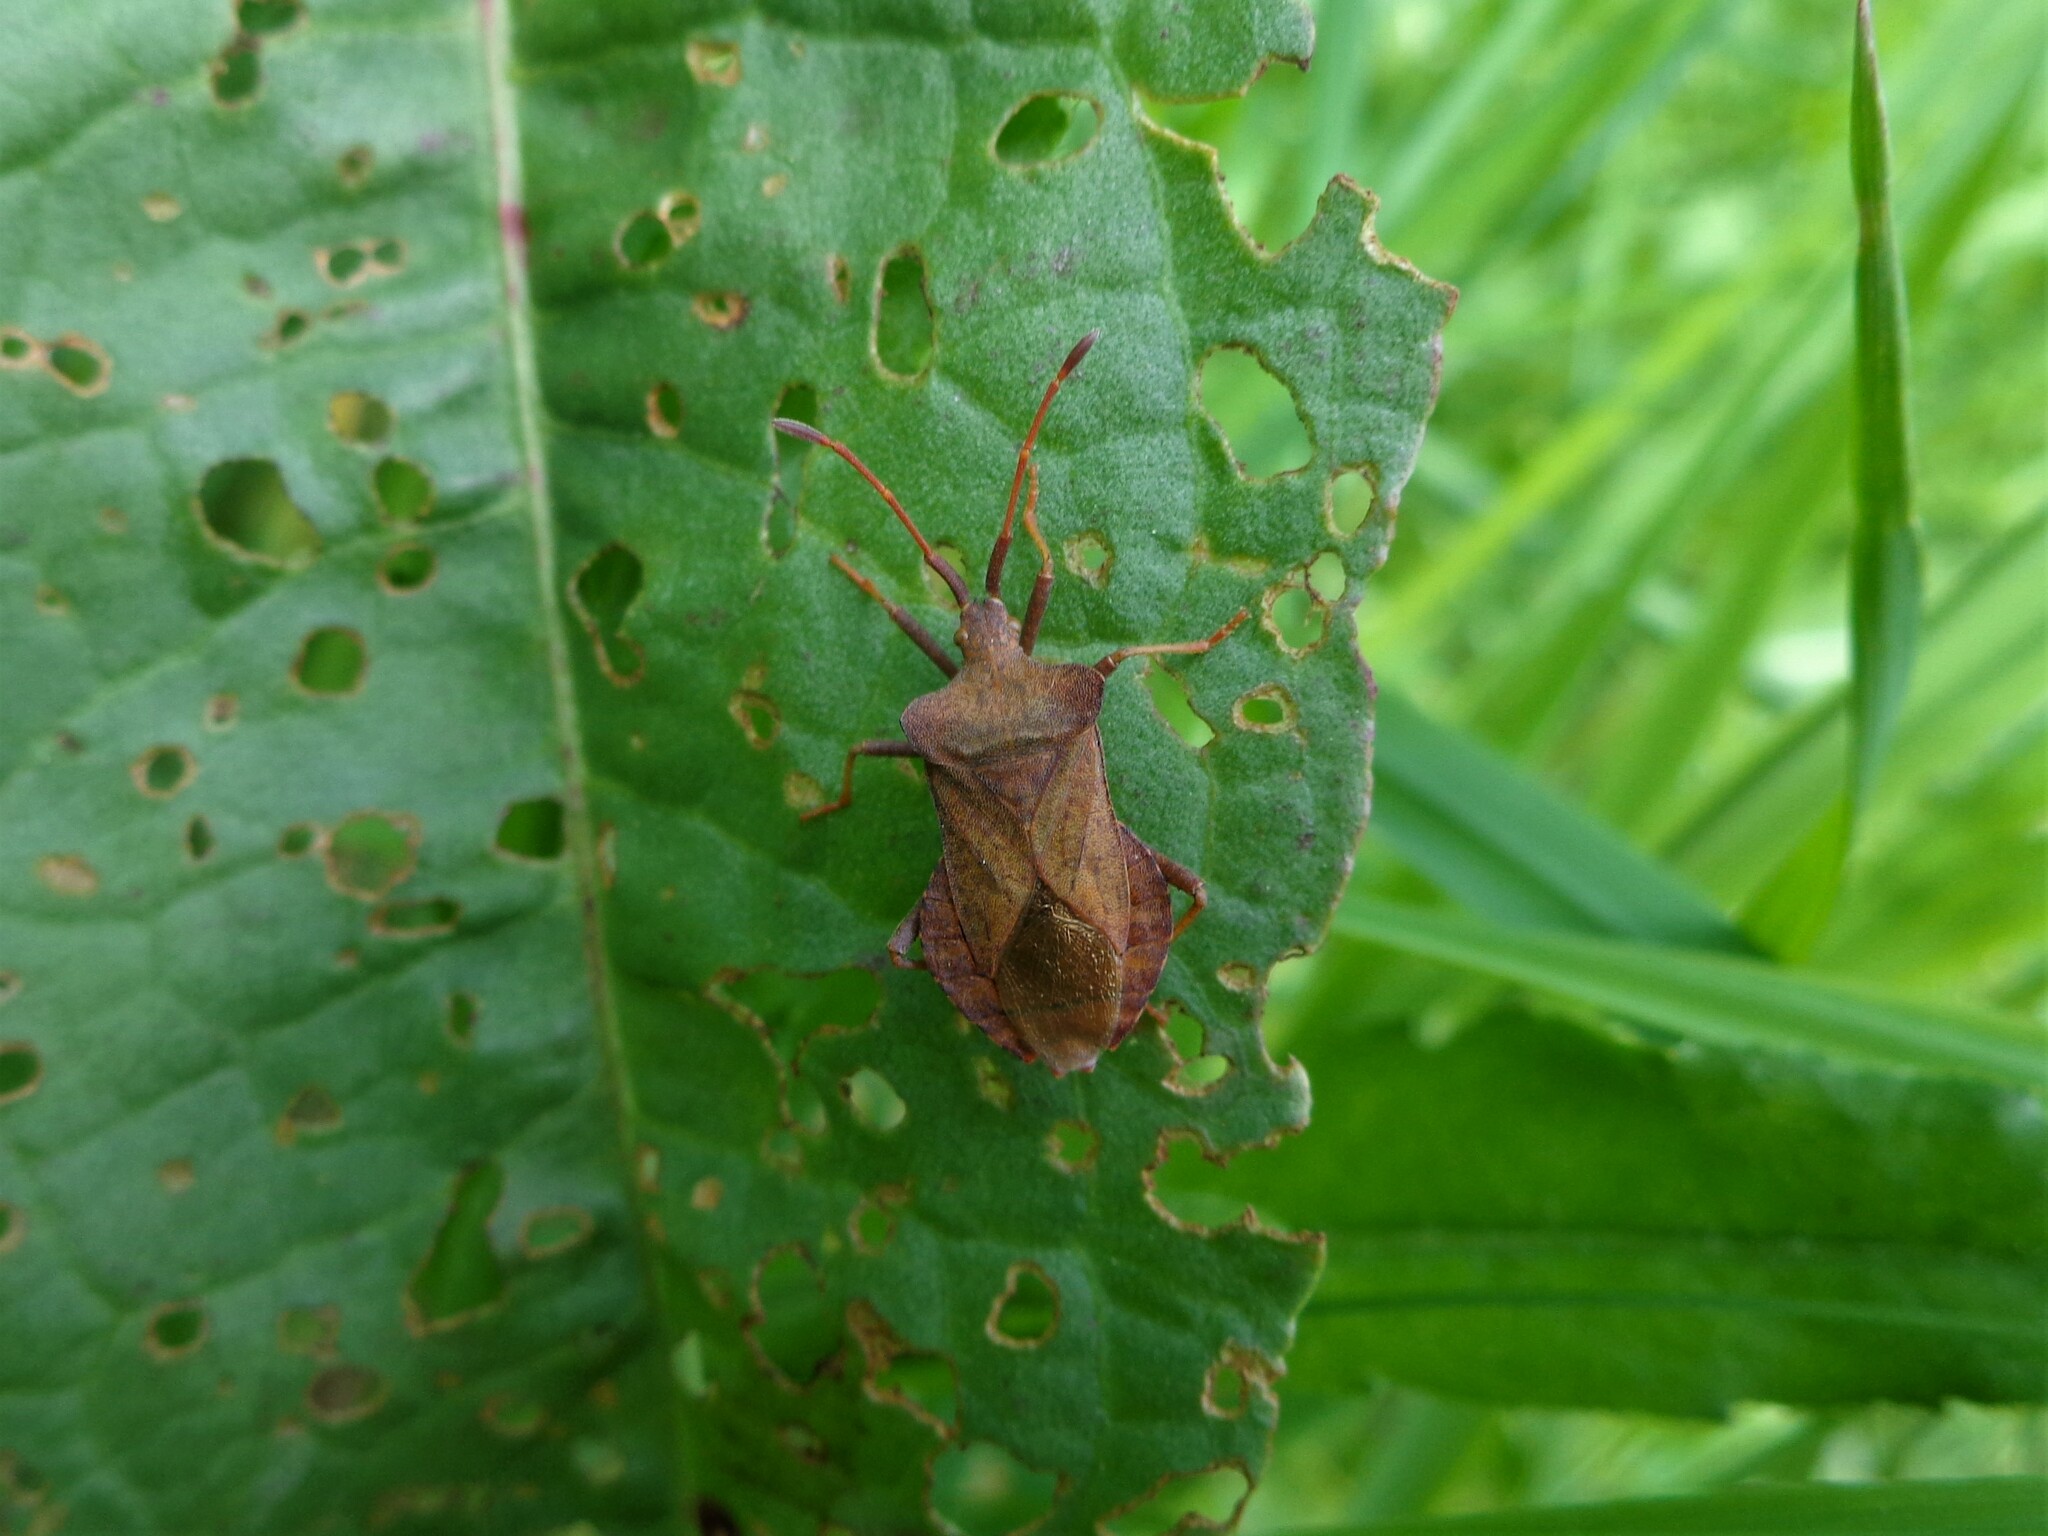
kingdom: Animalia
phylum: Arthropoda
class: Insecta
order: Hemiptera
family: Coreidae
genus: Coreus
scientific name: Coreus marginatus
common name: Dock bug
